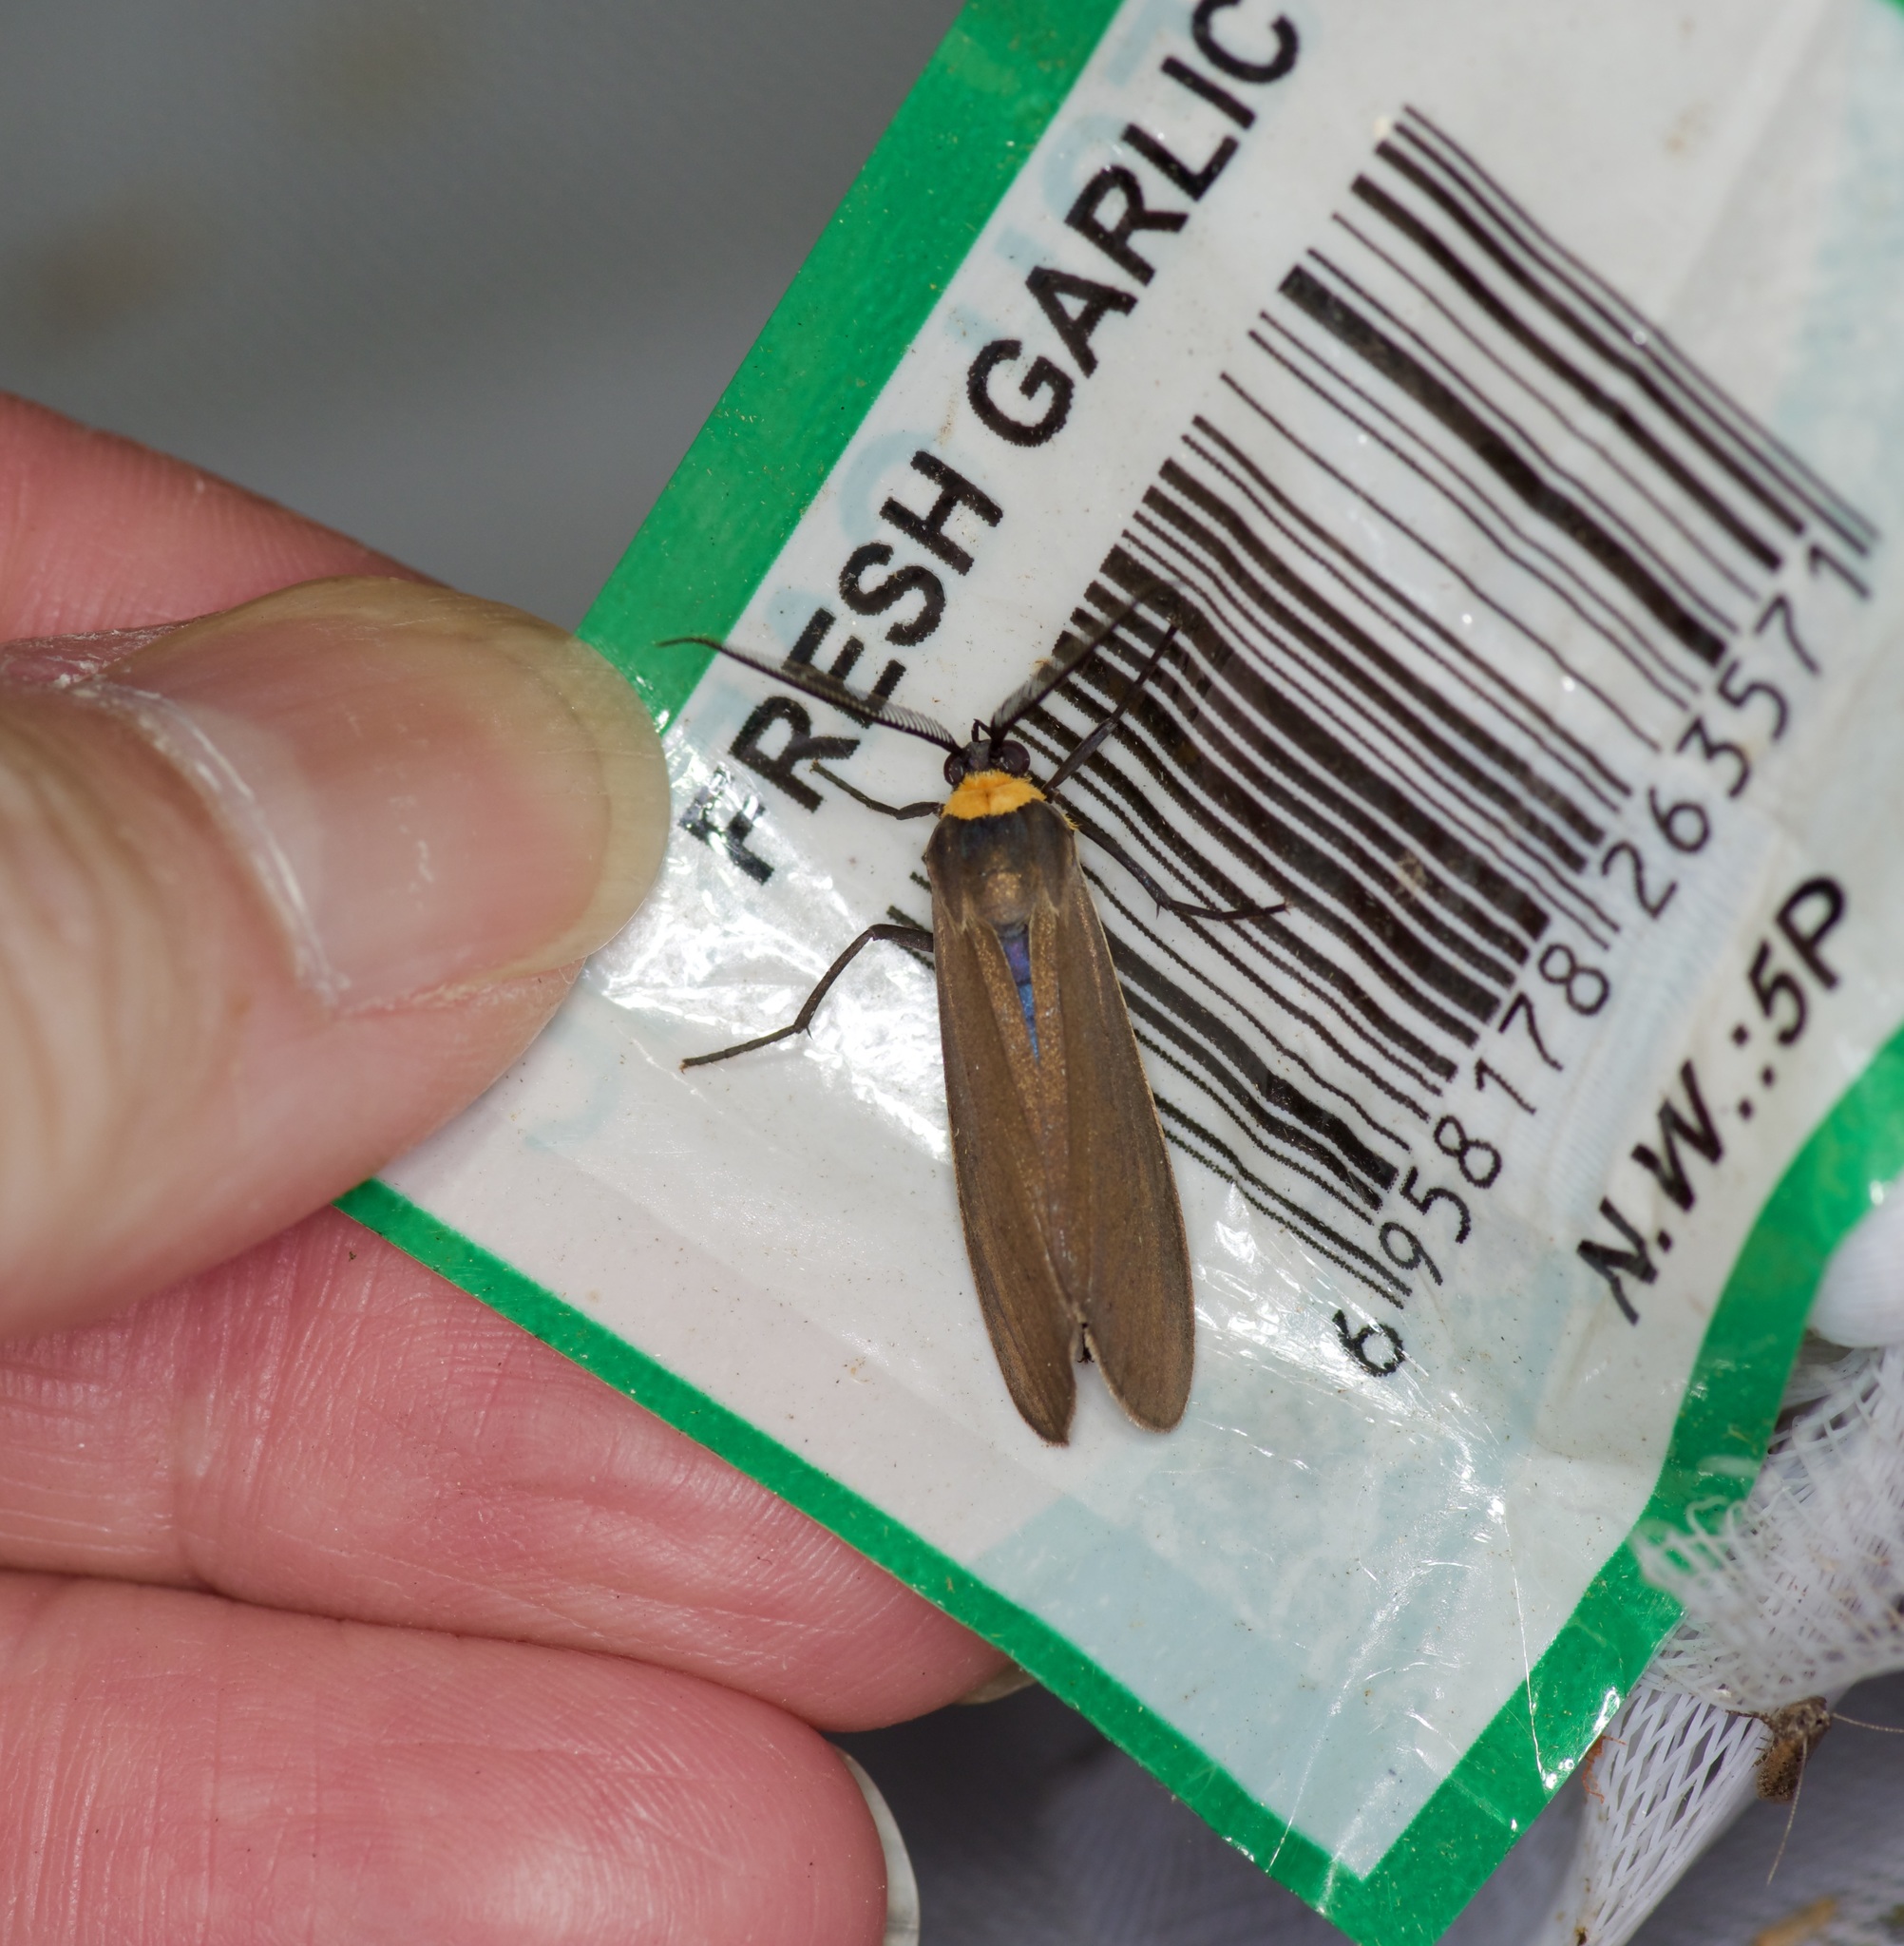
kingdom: Animalia
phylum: Arthropoda
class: Insecta
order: Lepidoptera
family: Erebidae
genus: Cisseps
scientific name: Cisseps fulvicollis
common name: Yellow-collared scape moth
